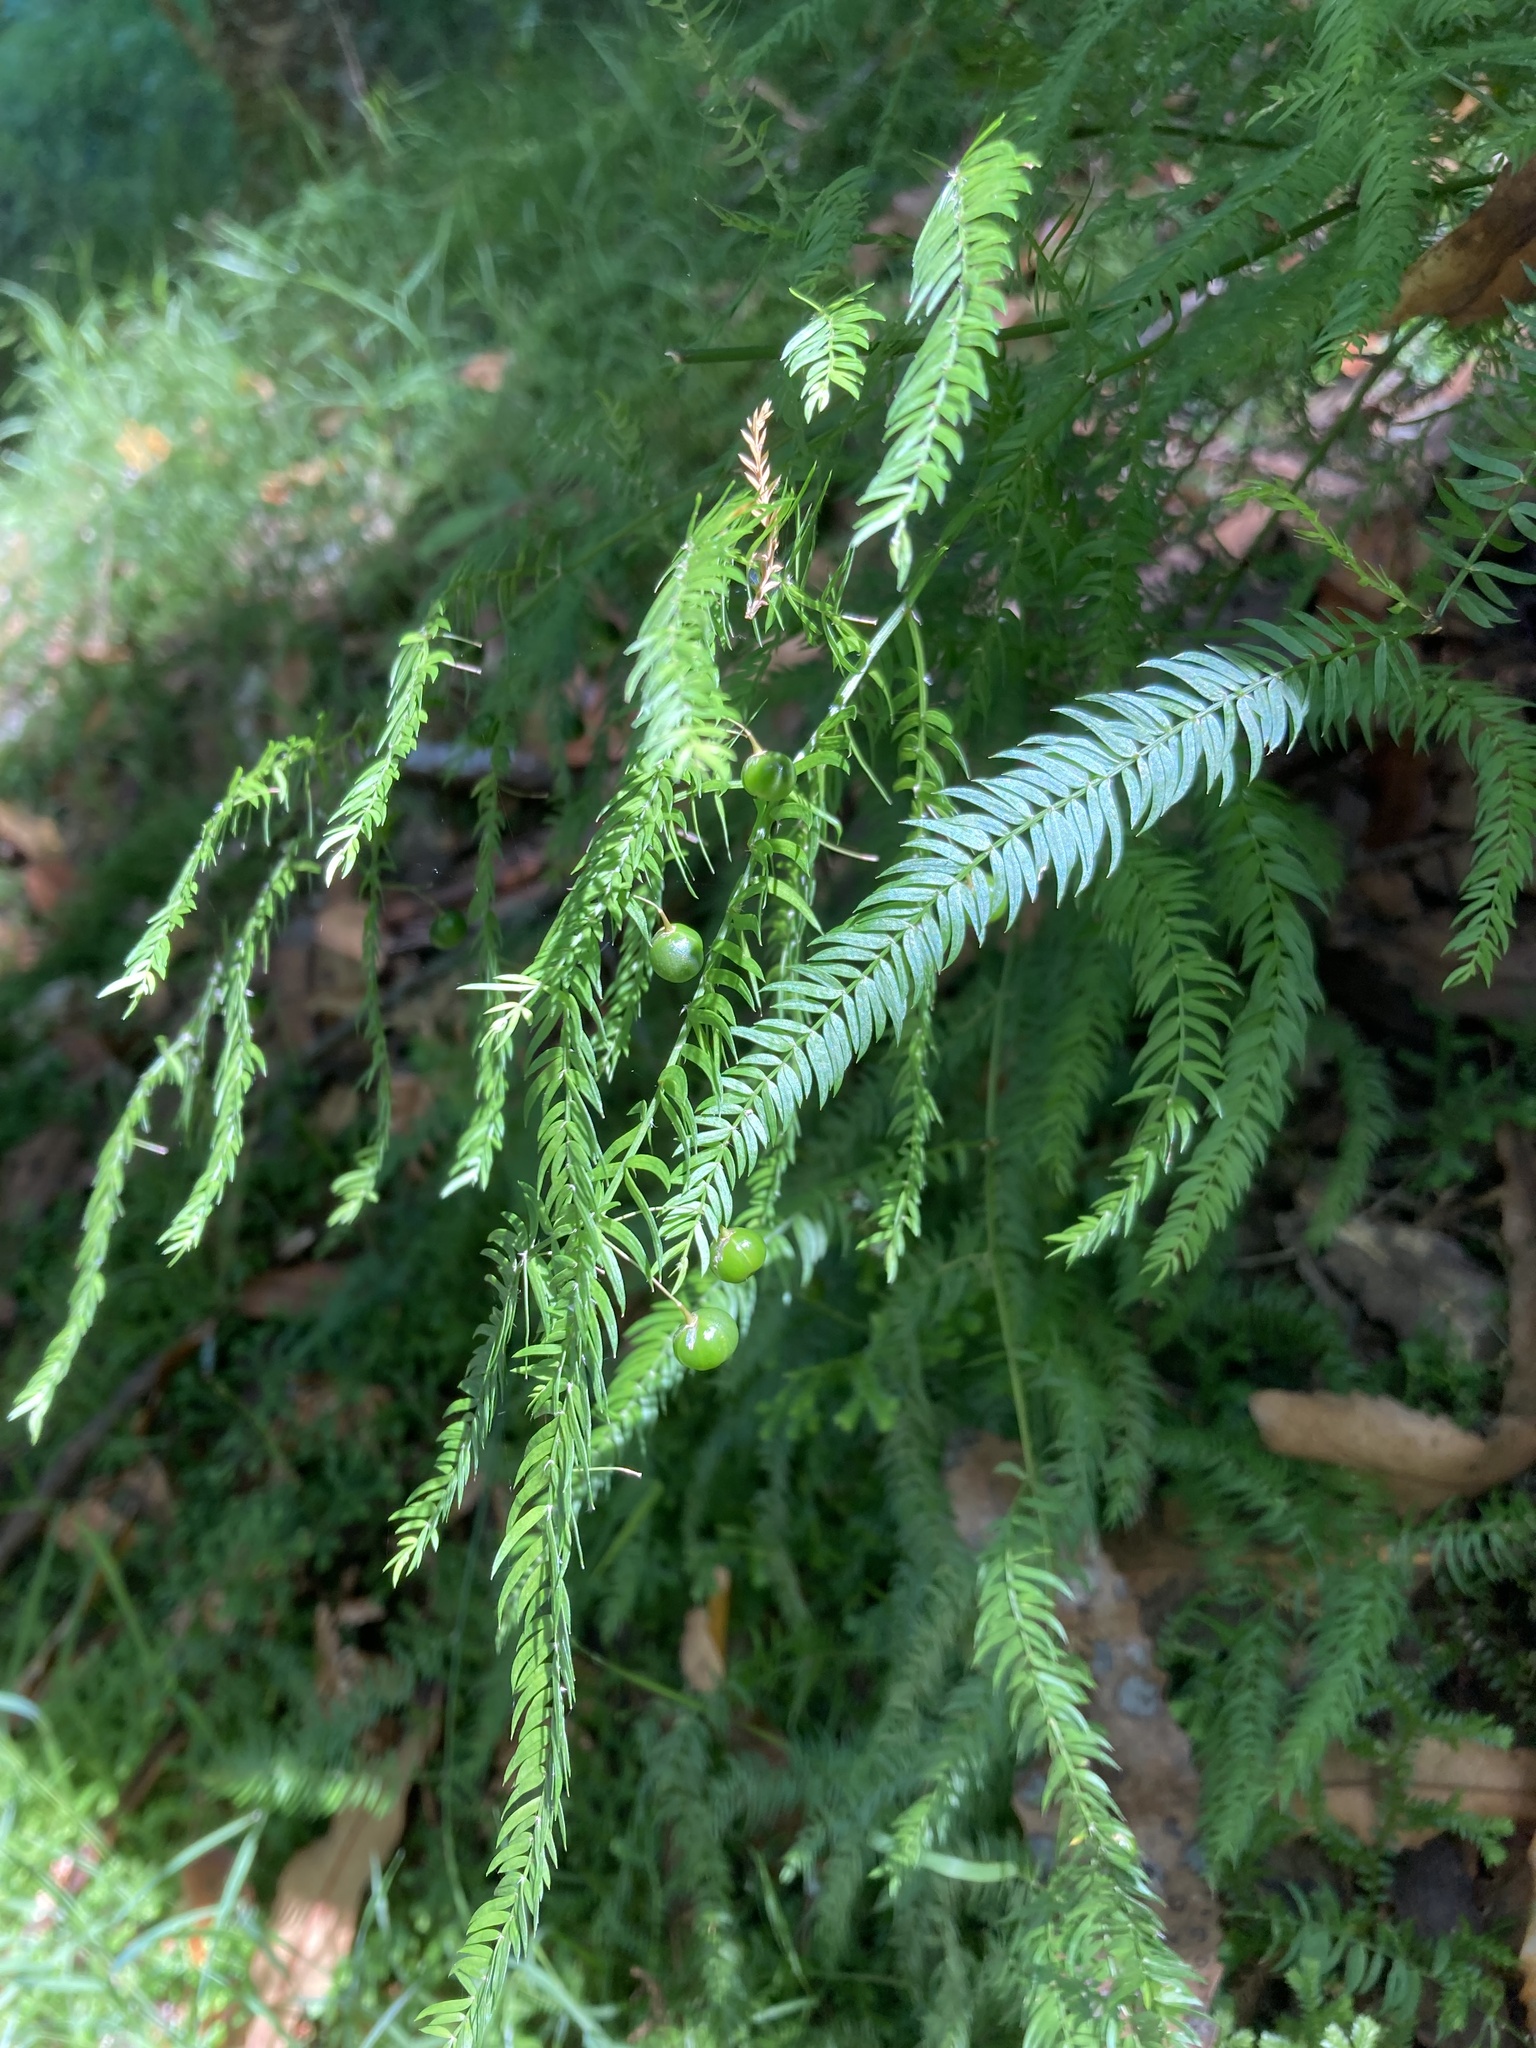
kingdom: Plantae
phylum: Tracheophyta
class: Liliopsida
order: Asparagales
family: Asparagaceae
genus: Asparagus
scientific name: Asparagus scandens
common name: Asparagus-fern
